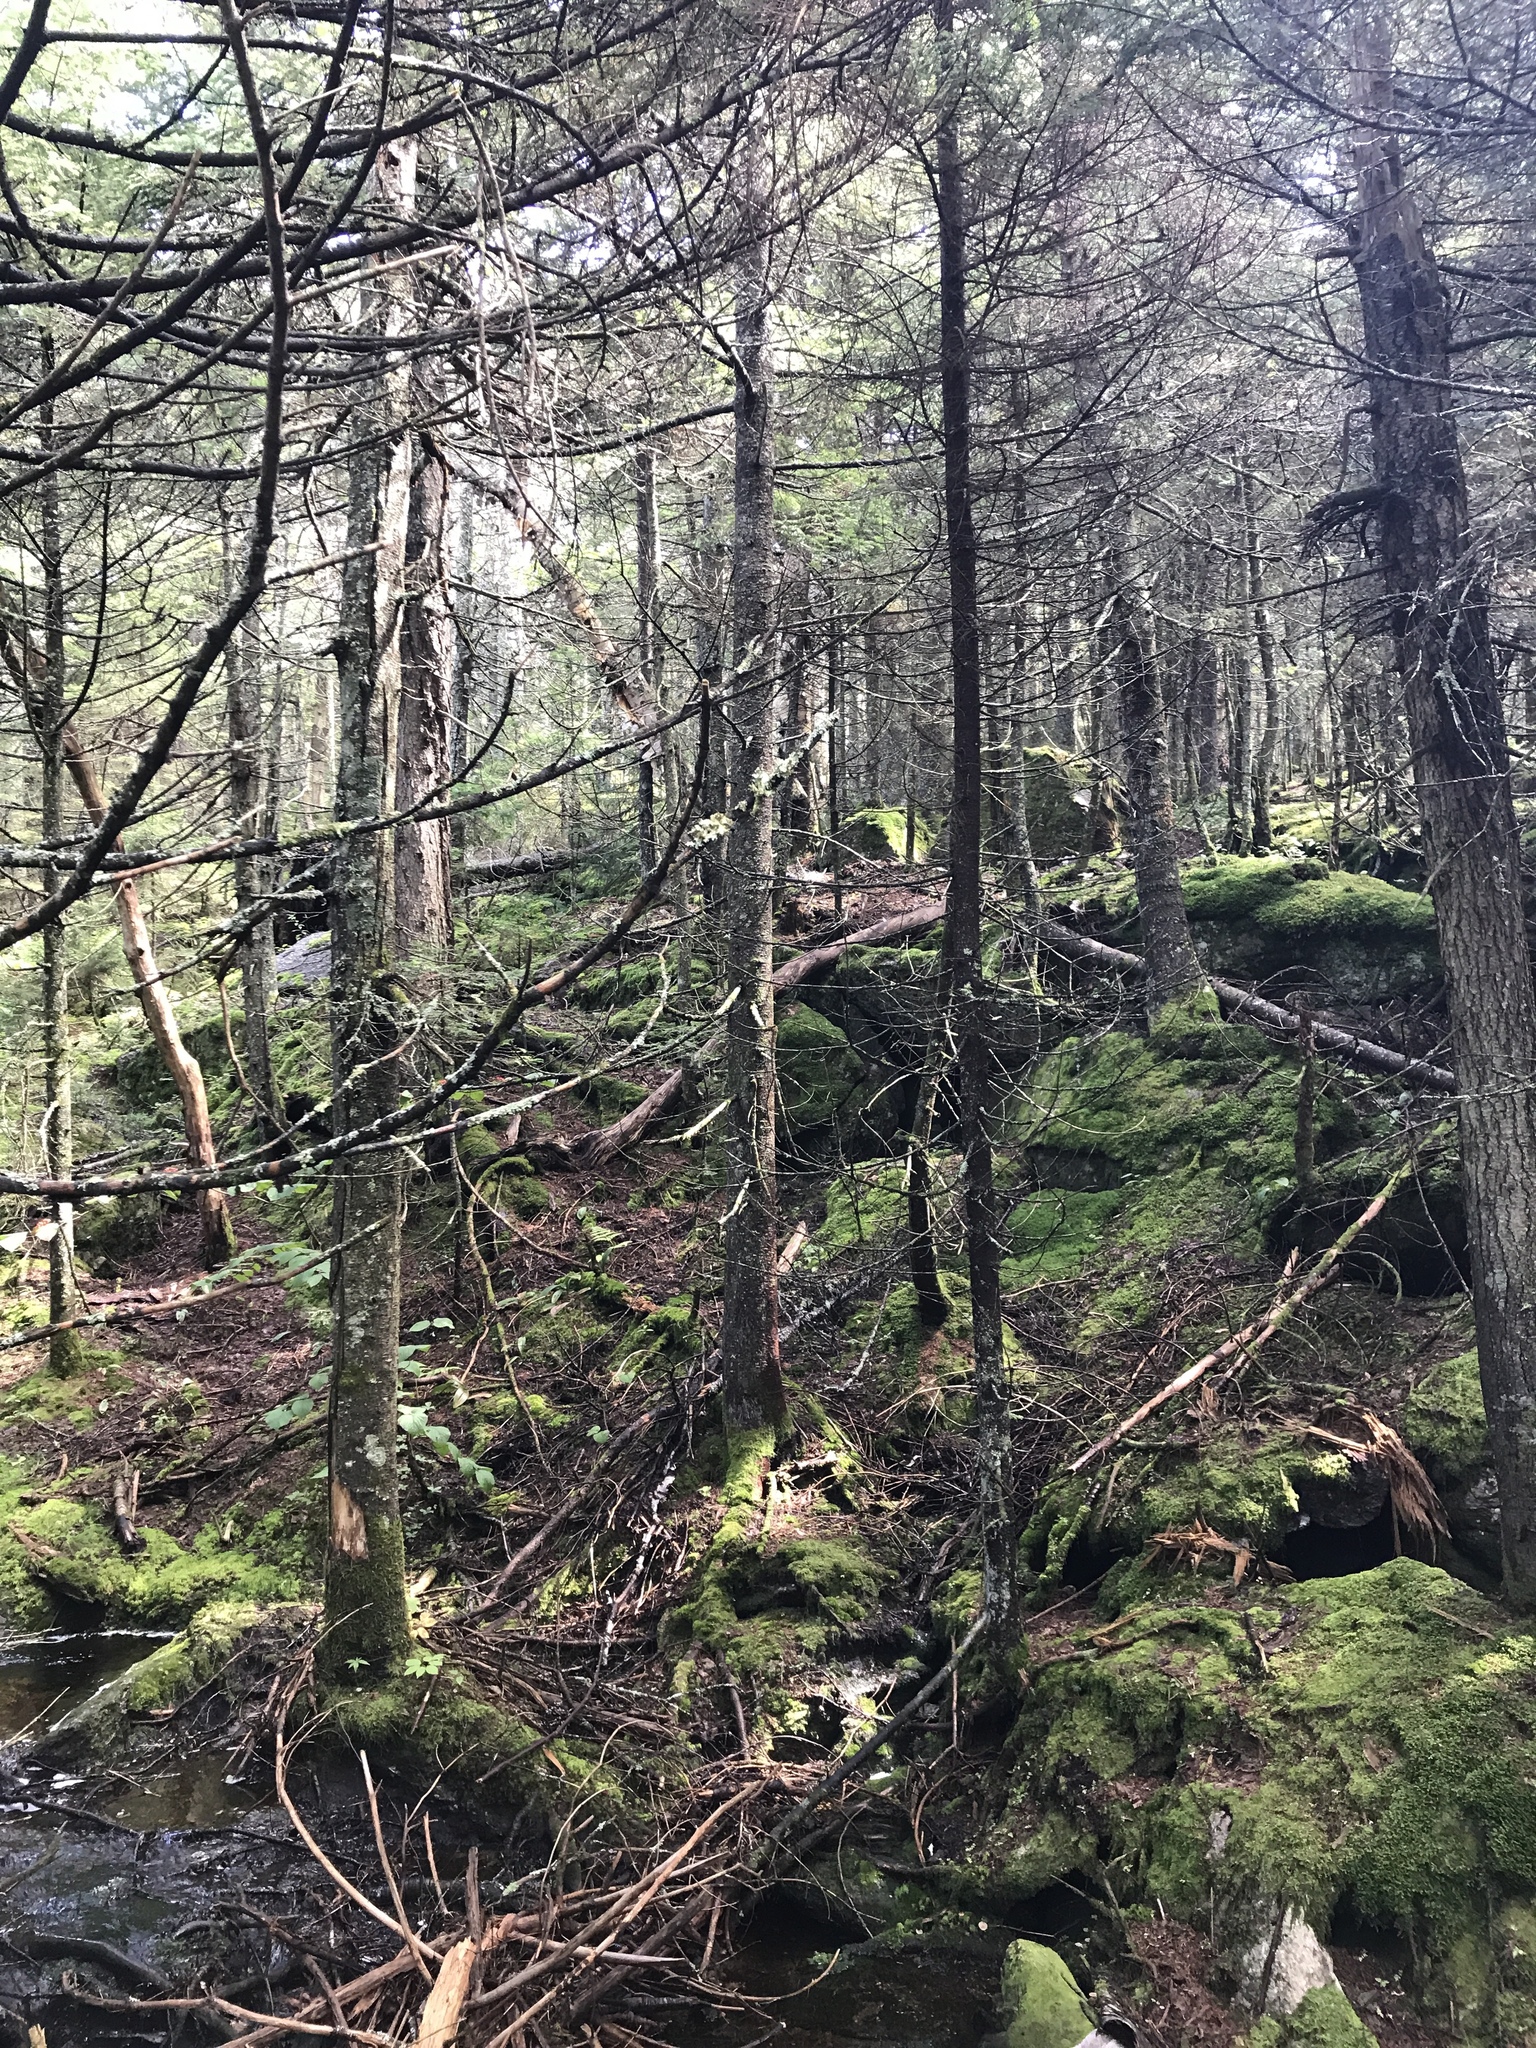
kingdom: Plantae
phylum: Tracheophyta
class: Pinopsida
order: Pinales
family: Pinaceae
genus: Abies
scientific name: Abies balsamea
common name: Balsam fir
